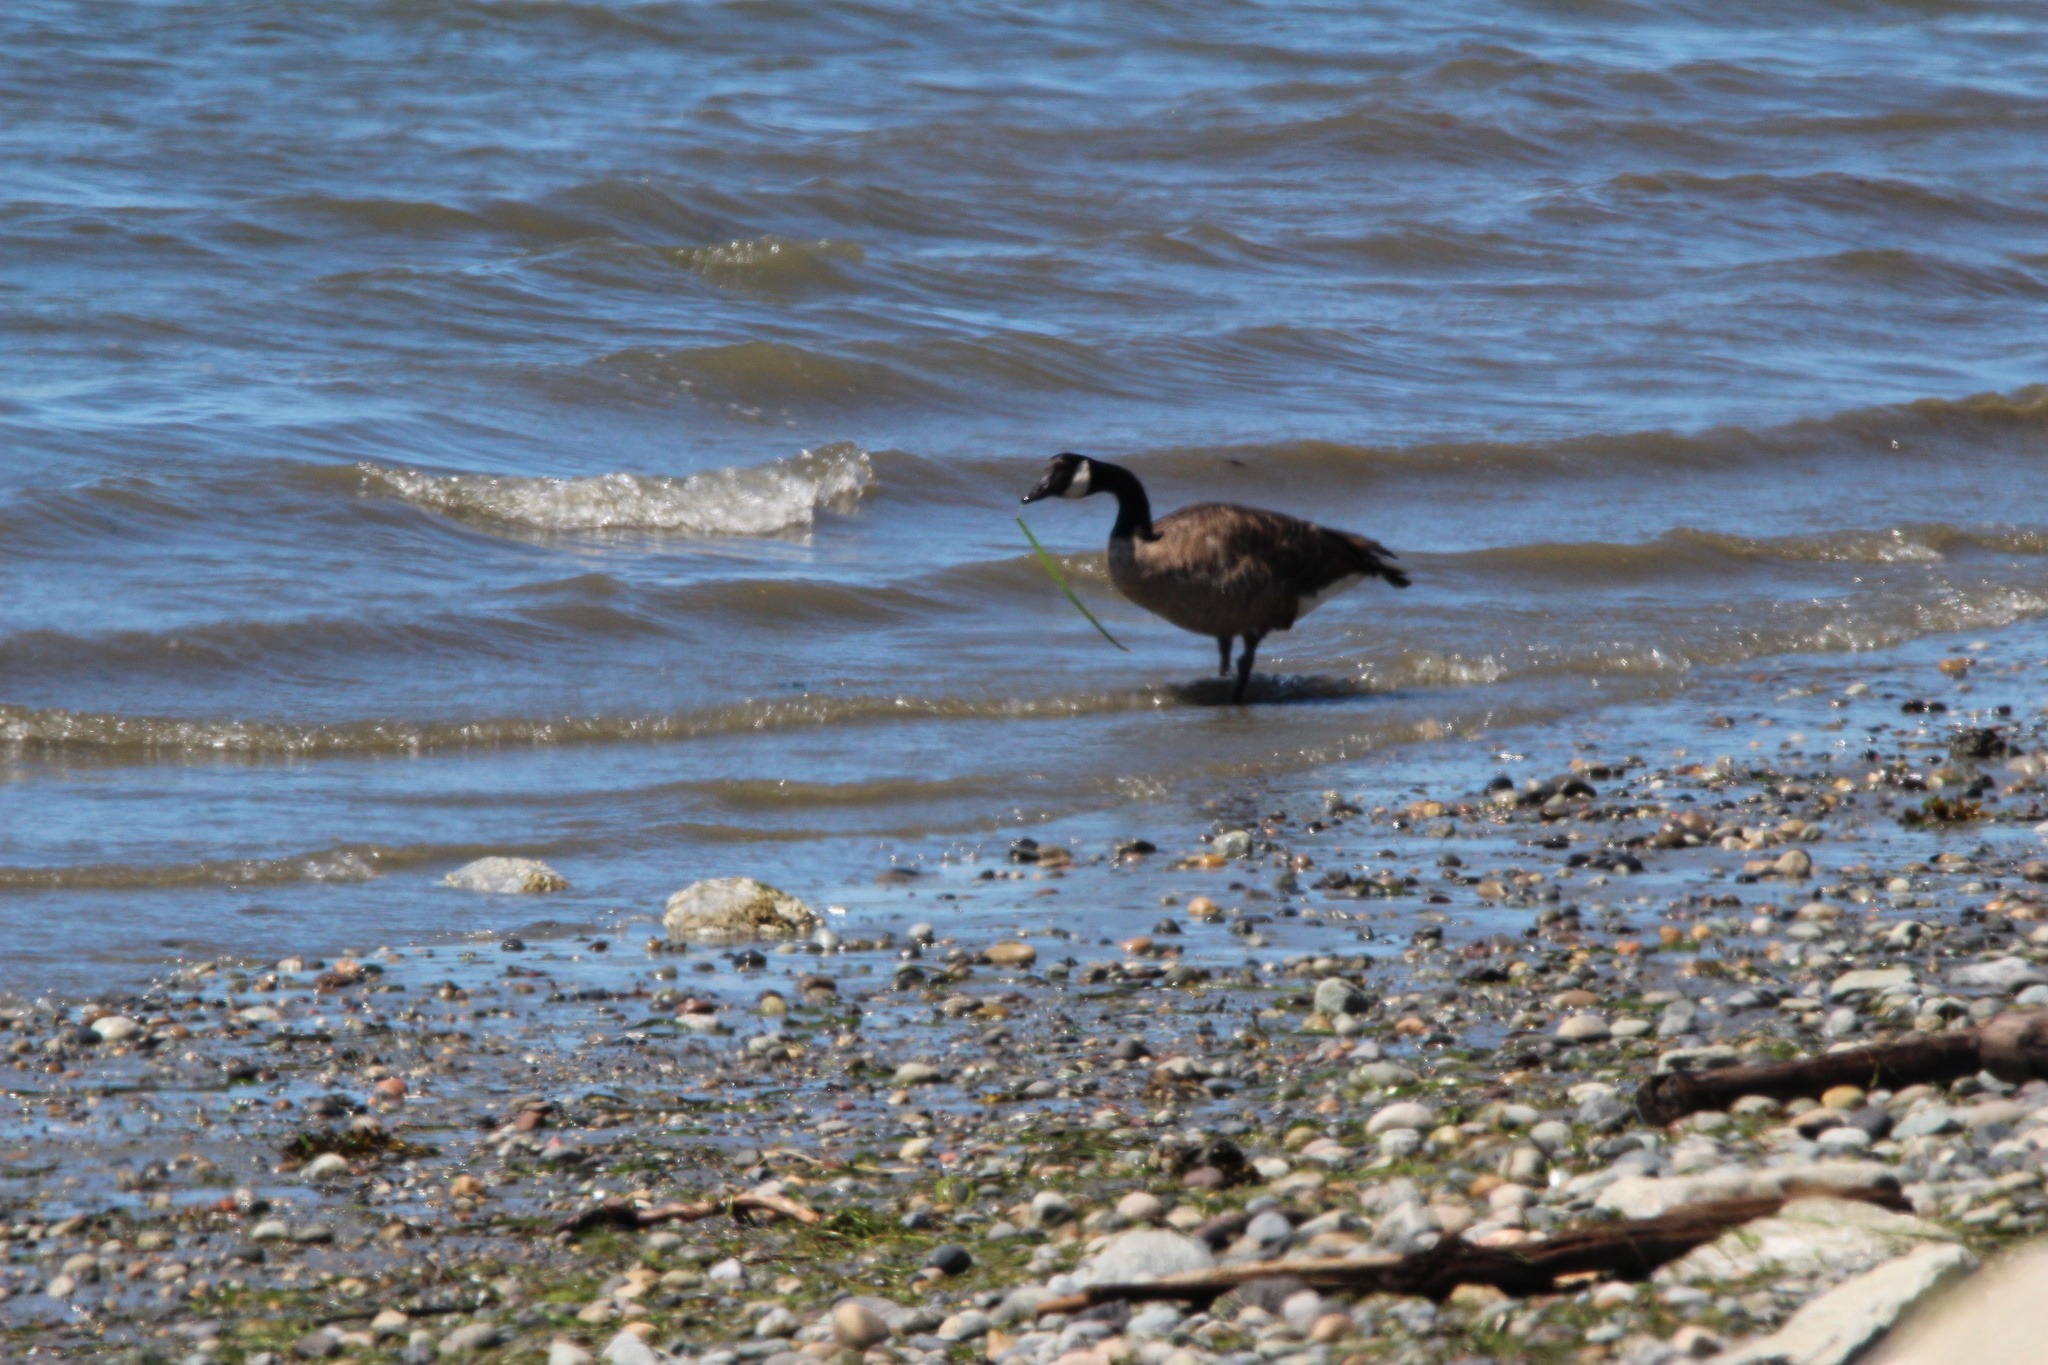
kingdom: Animalia
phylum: Chordata
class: Aves
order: Anseriformes
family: Anatidae
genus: Branta
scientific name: Branta canadensis
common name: Canada goose
